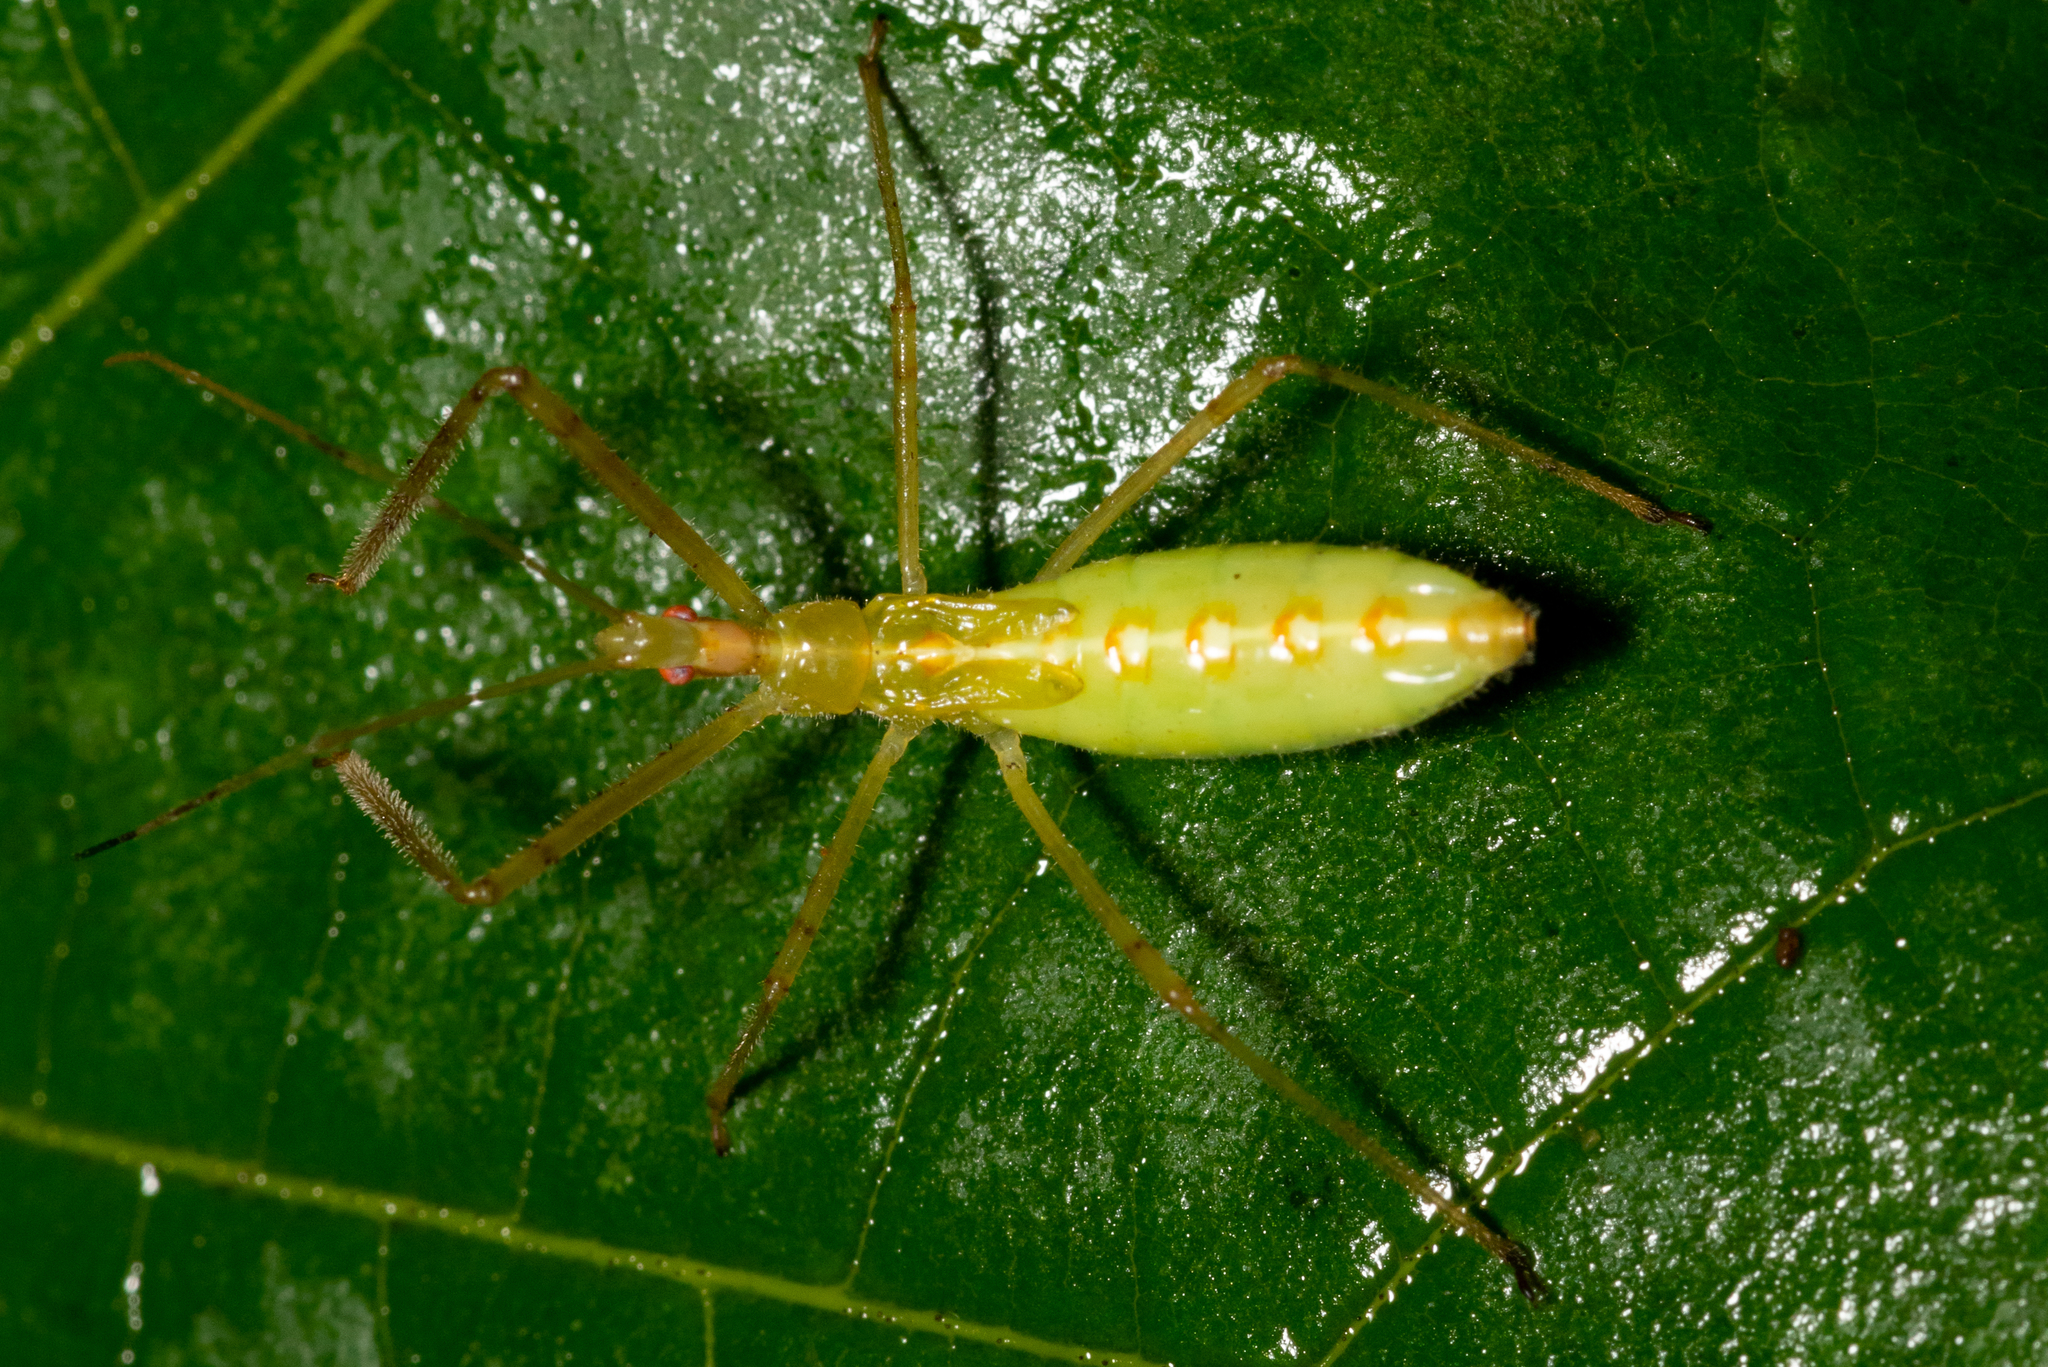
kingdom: Animalia
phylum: Arthropoda
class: Insecta
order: Hemiptera
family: Reduviidae
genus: Zelus
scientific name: Zelus luridus
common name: Pale green assassin bug
